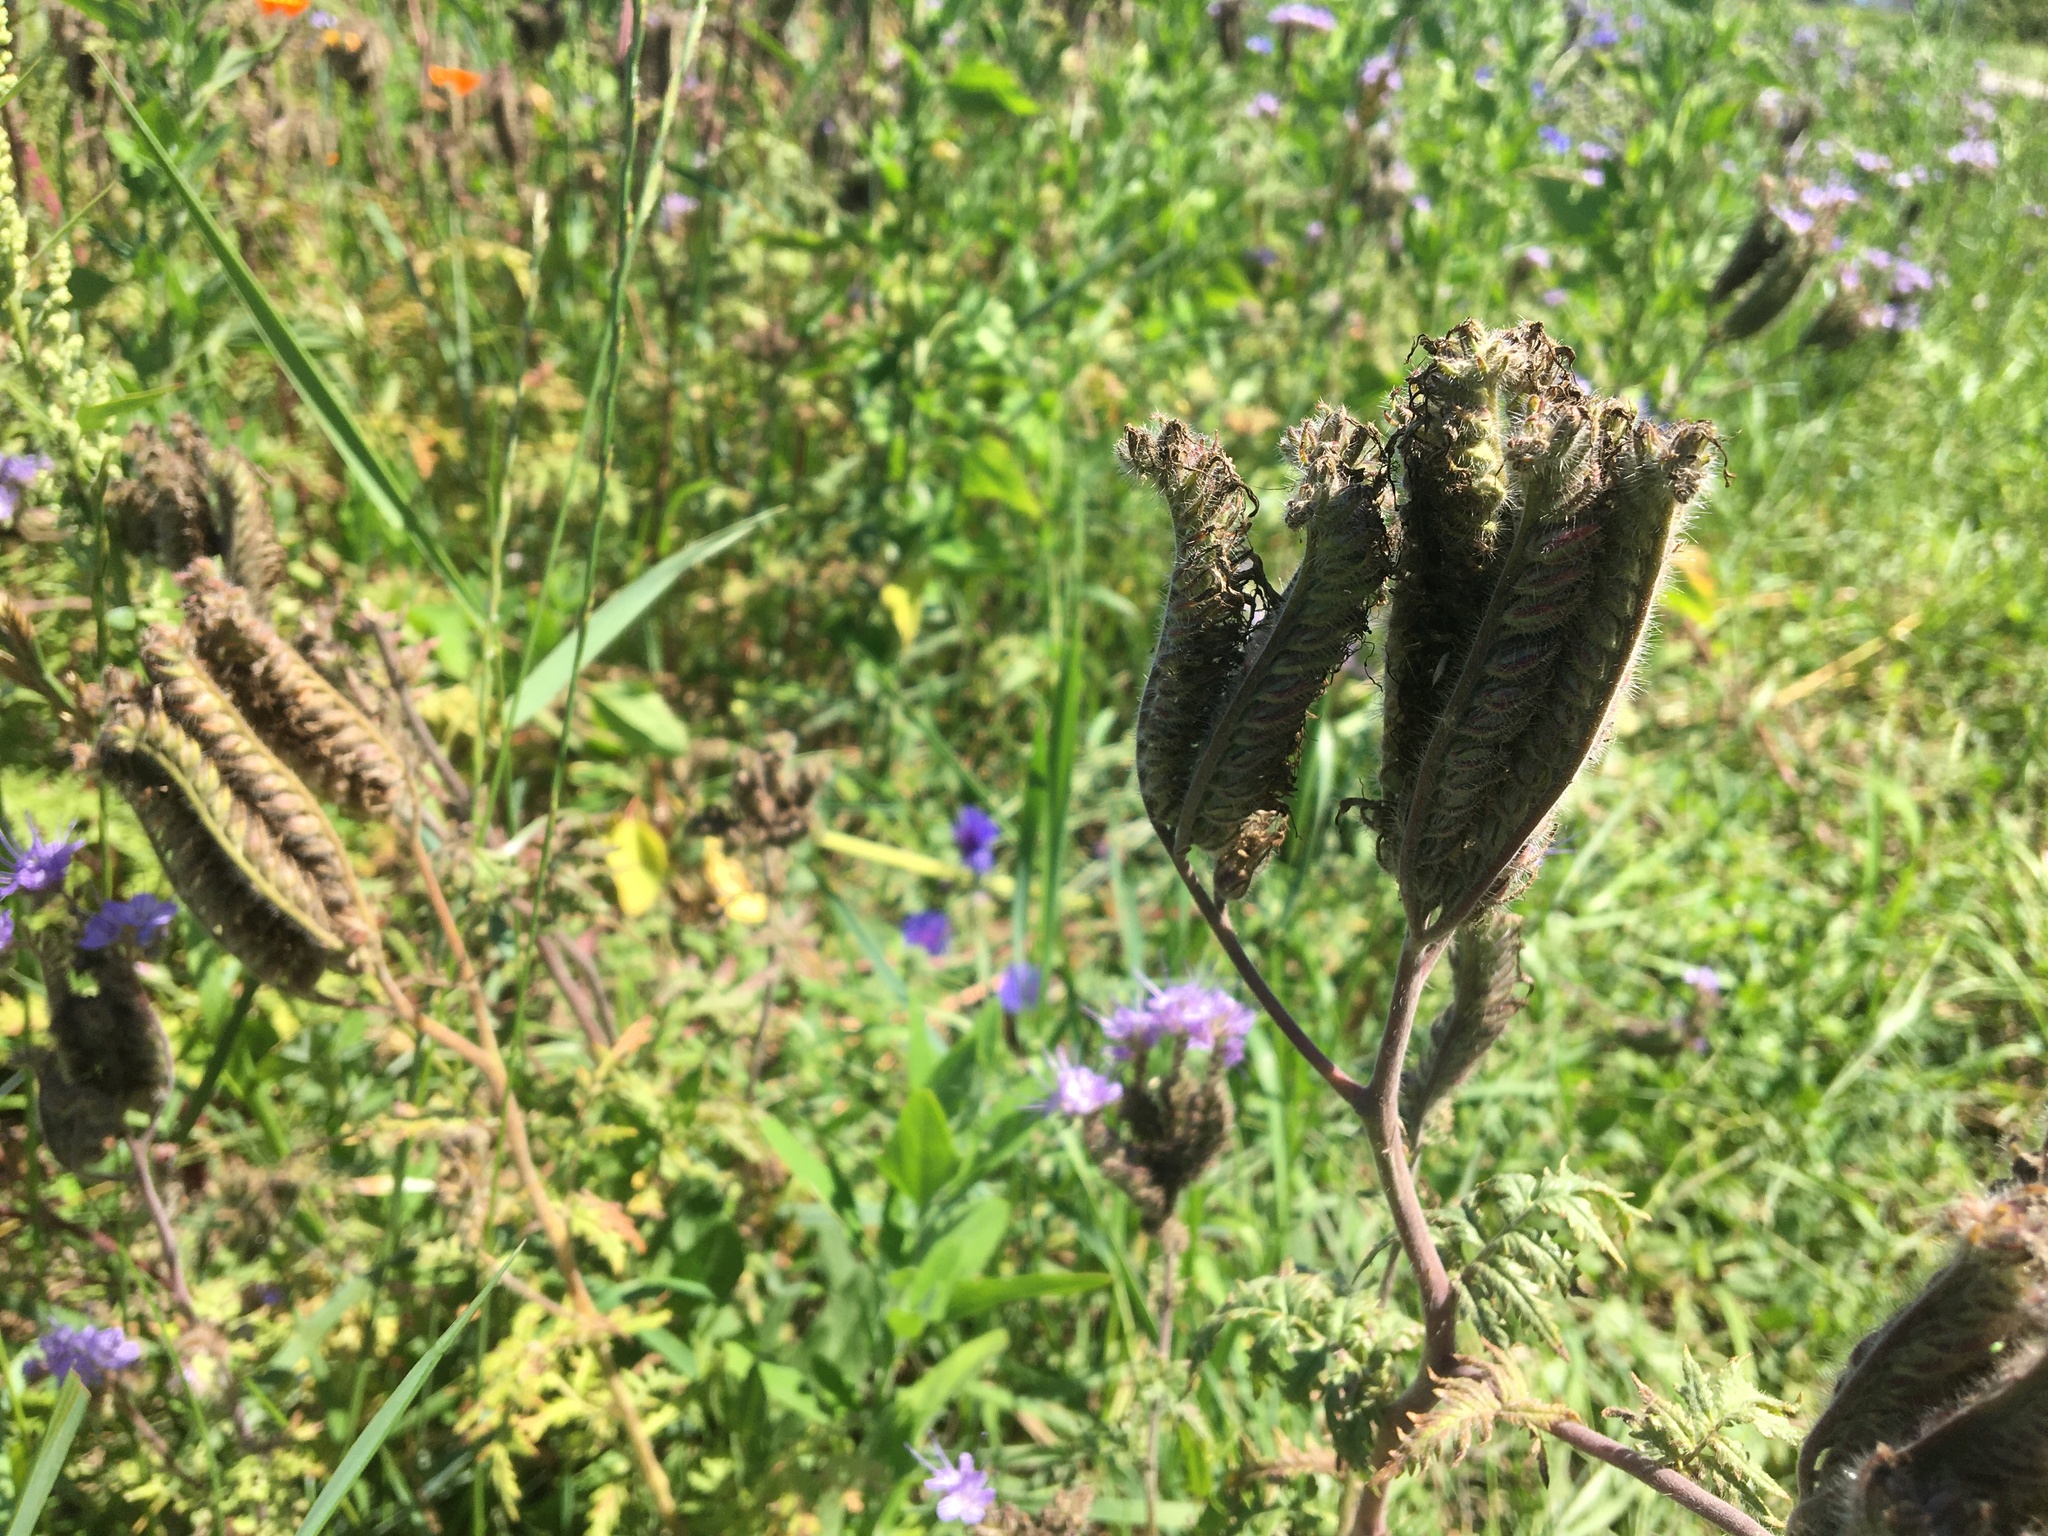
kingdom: Plantae
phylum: Tracheophyta
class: Magnoliopsida
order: Boraginales
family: Hydrophyllaceae
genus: Phacelia
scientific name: Phacelia tanacetifolia
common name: Phacelia
